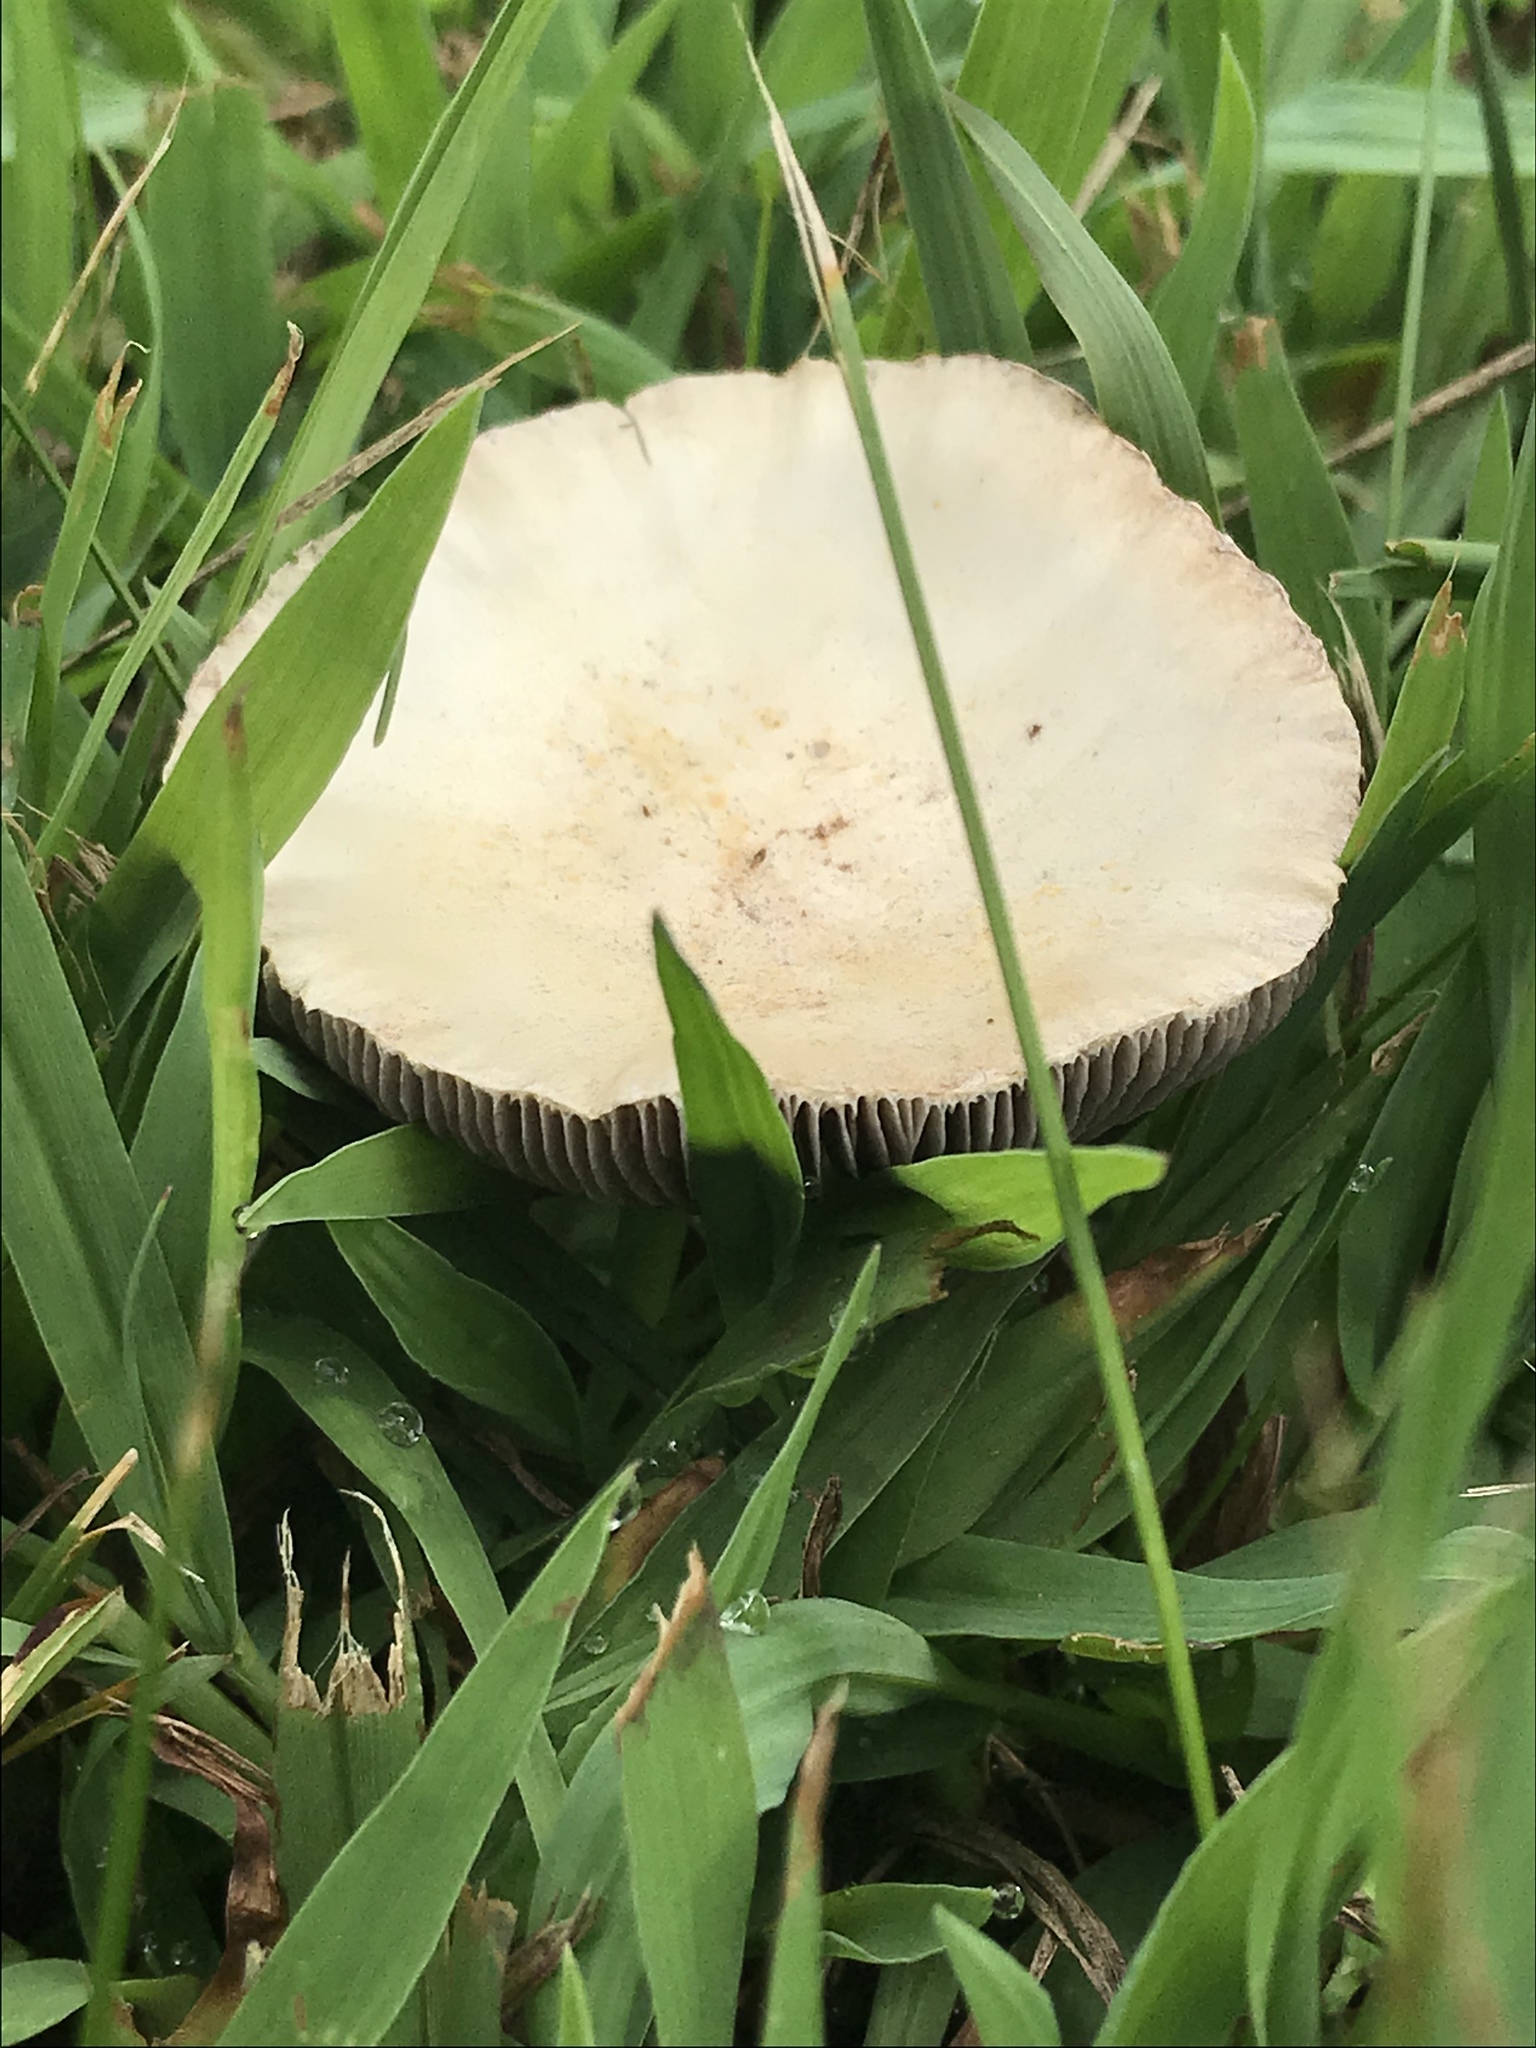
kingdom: Fungi
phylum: Basidiomycota
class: Agaricomycetes
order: Agaricales
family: Hymenogastraceae
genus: Psilocybe
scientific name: Psilocybe coronilla
